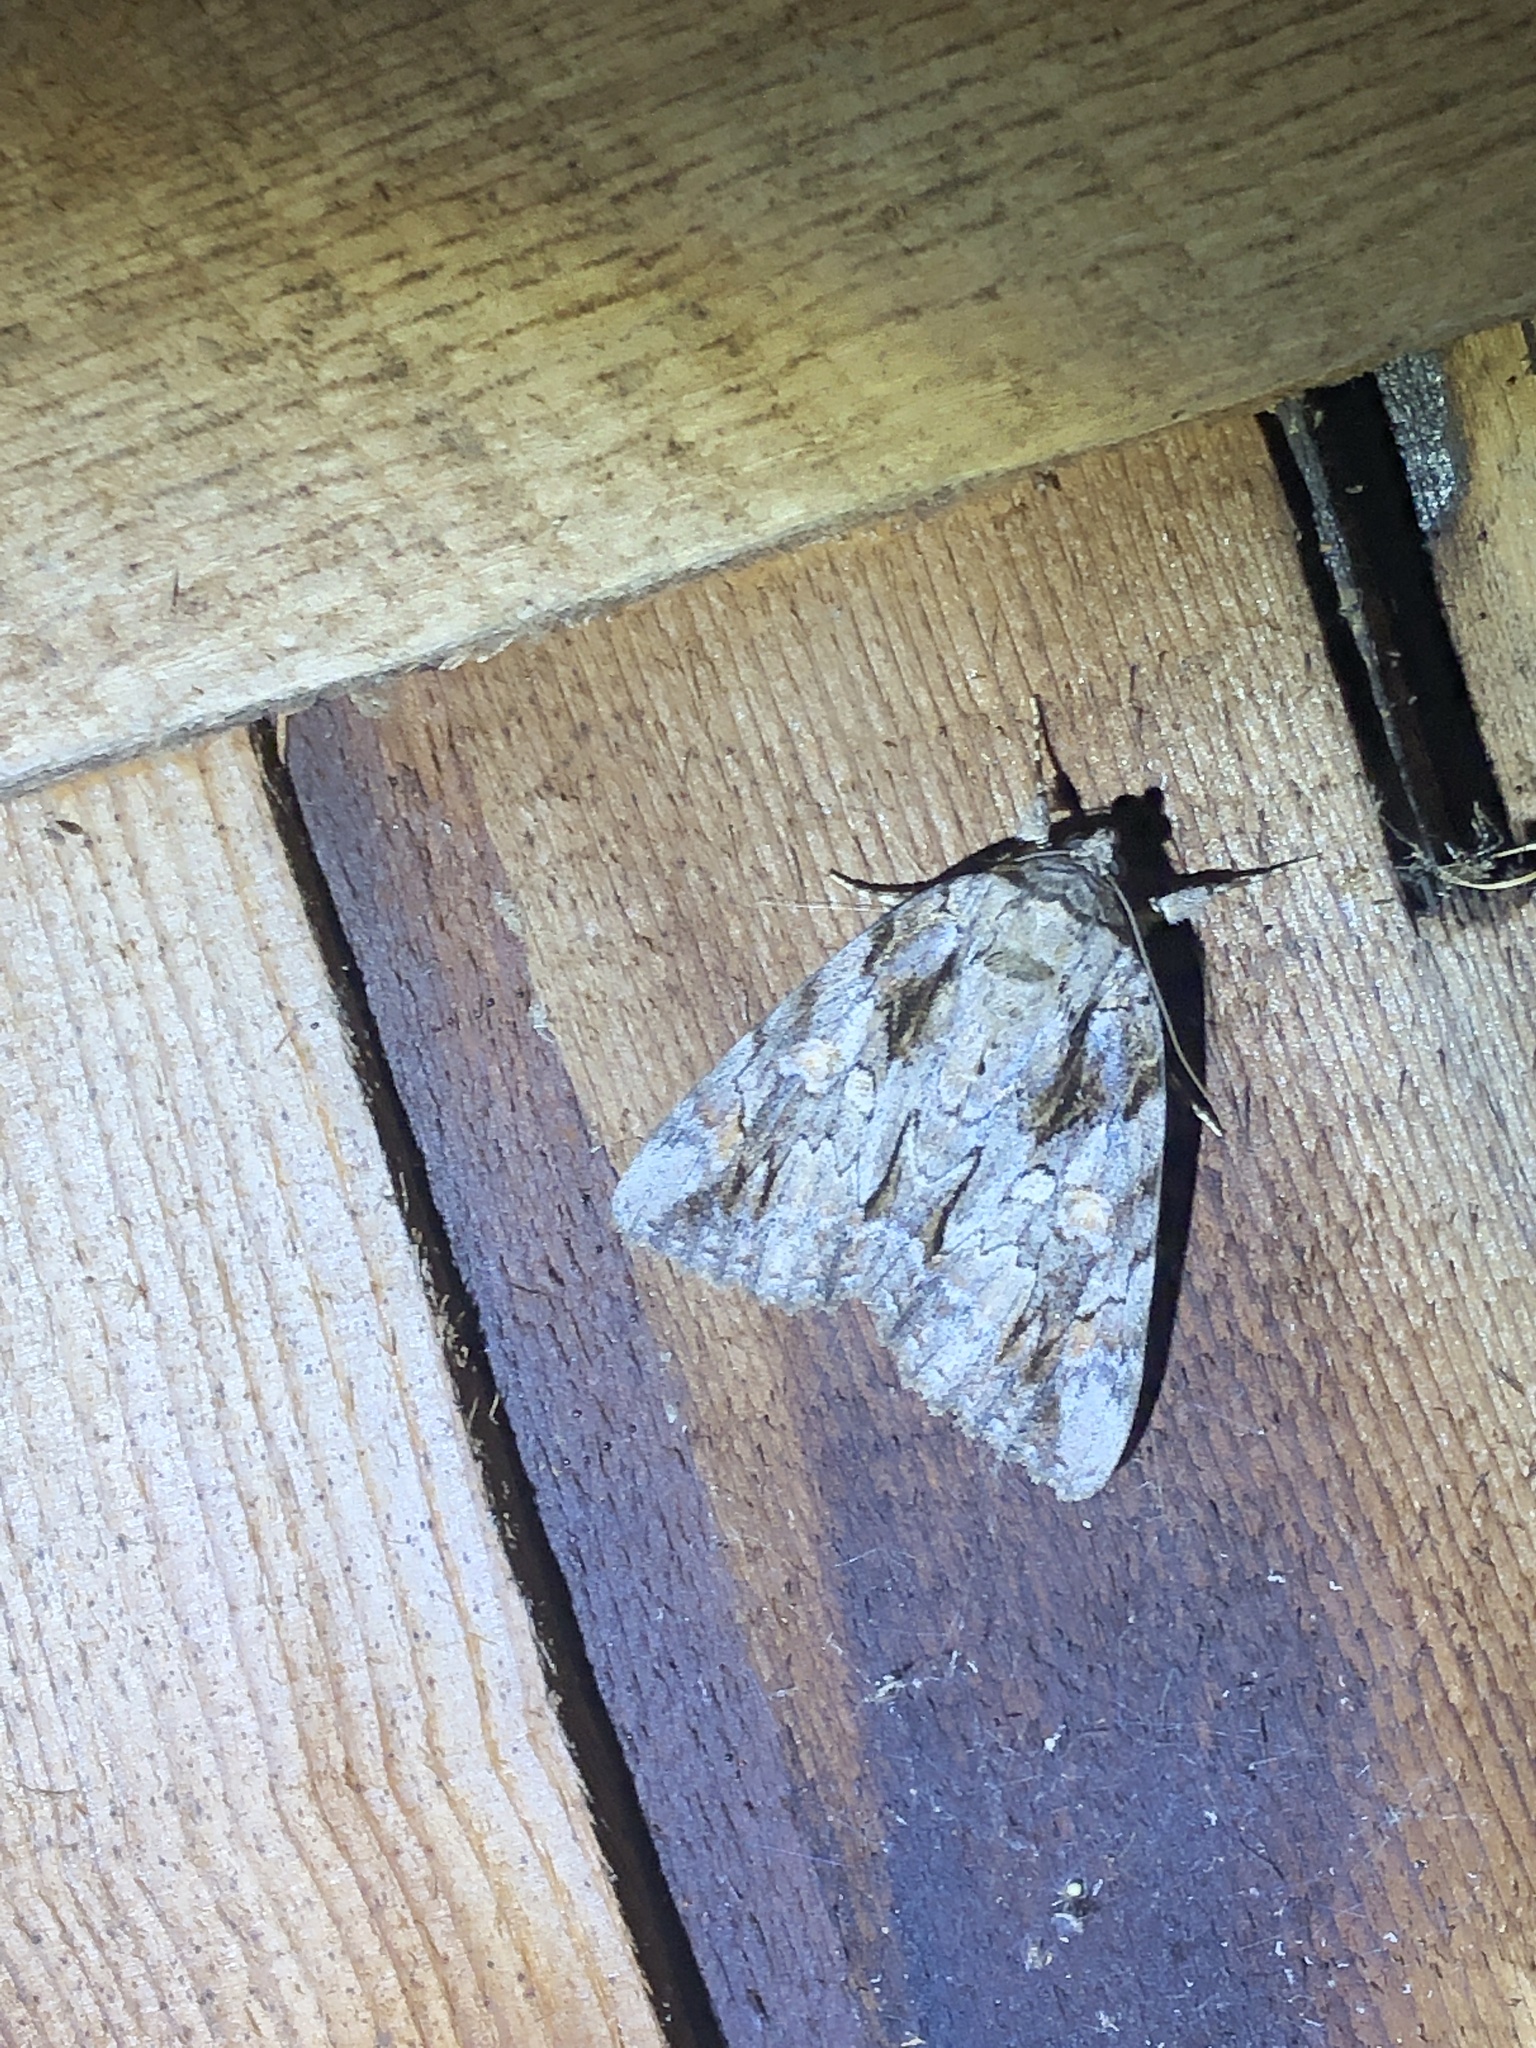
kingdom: Animalia
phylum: Arthropoda
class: Insecta
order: Lepidoptera
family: Erebidae
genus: Catocala
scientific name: Catocala neogama
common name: Bride underwing
